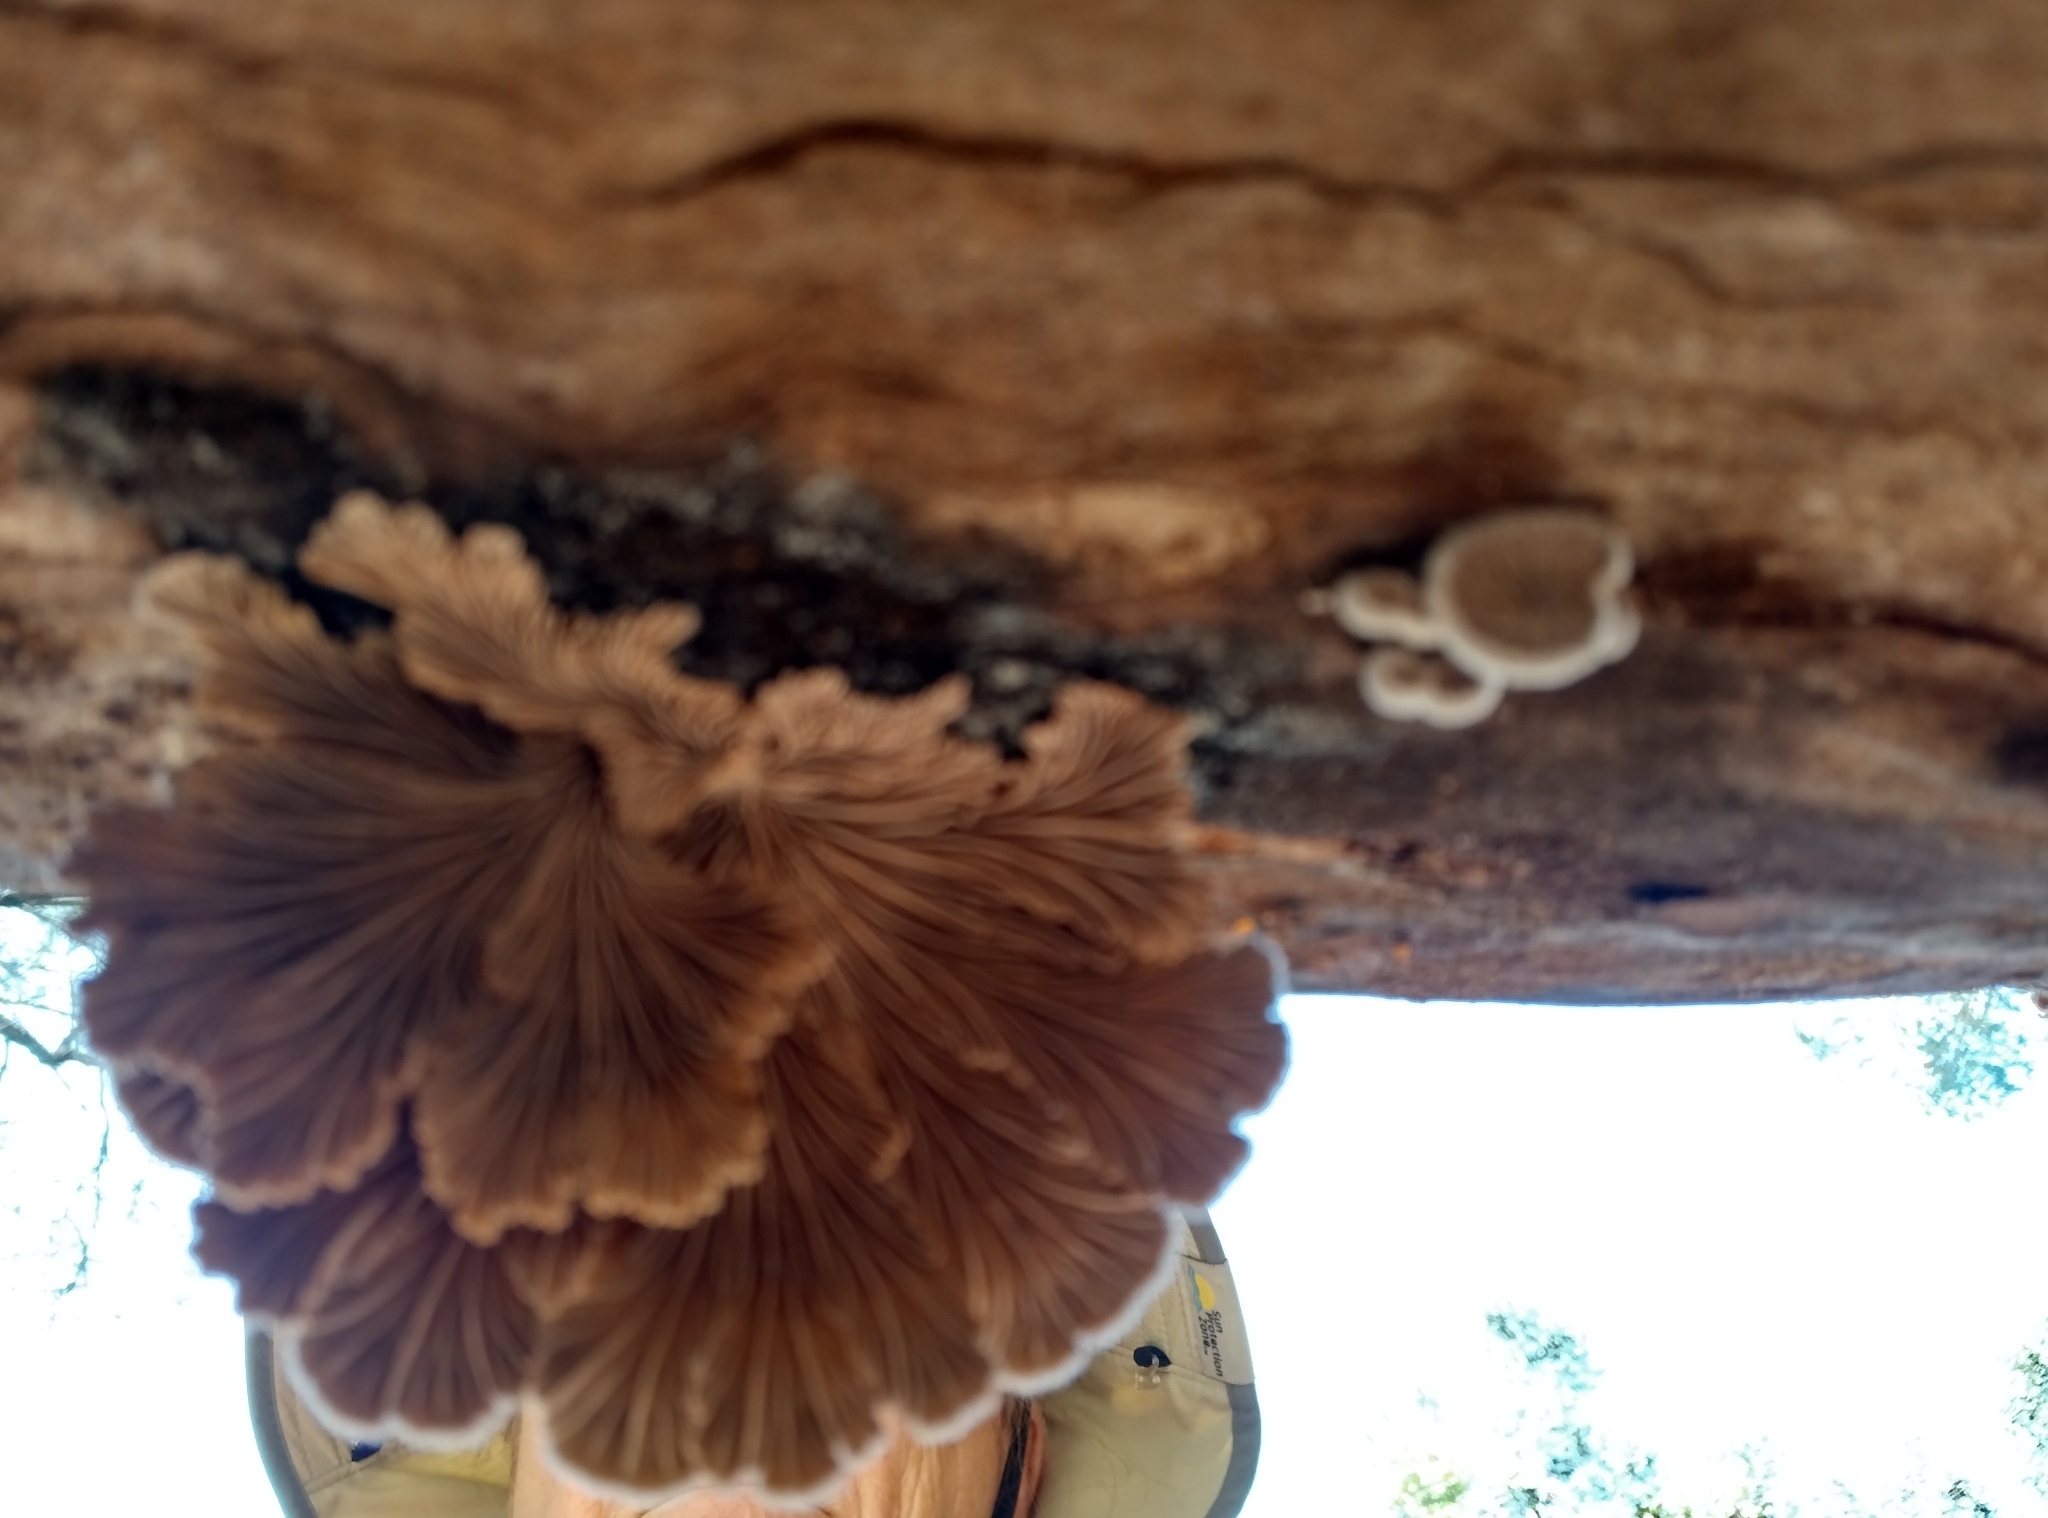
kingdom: Fungi
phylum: Basidiomycota
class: Agaricomycetes
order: Agaricales
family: Schizophyllaceae
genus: Schizophyllum
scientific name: Schizophyllum commune
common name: Common porecrust
